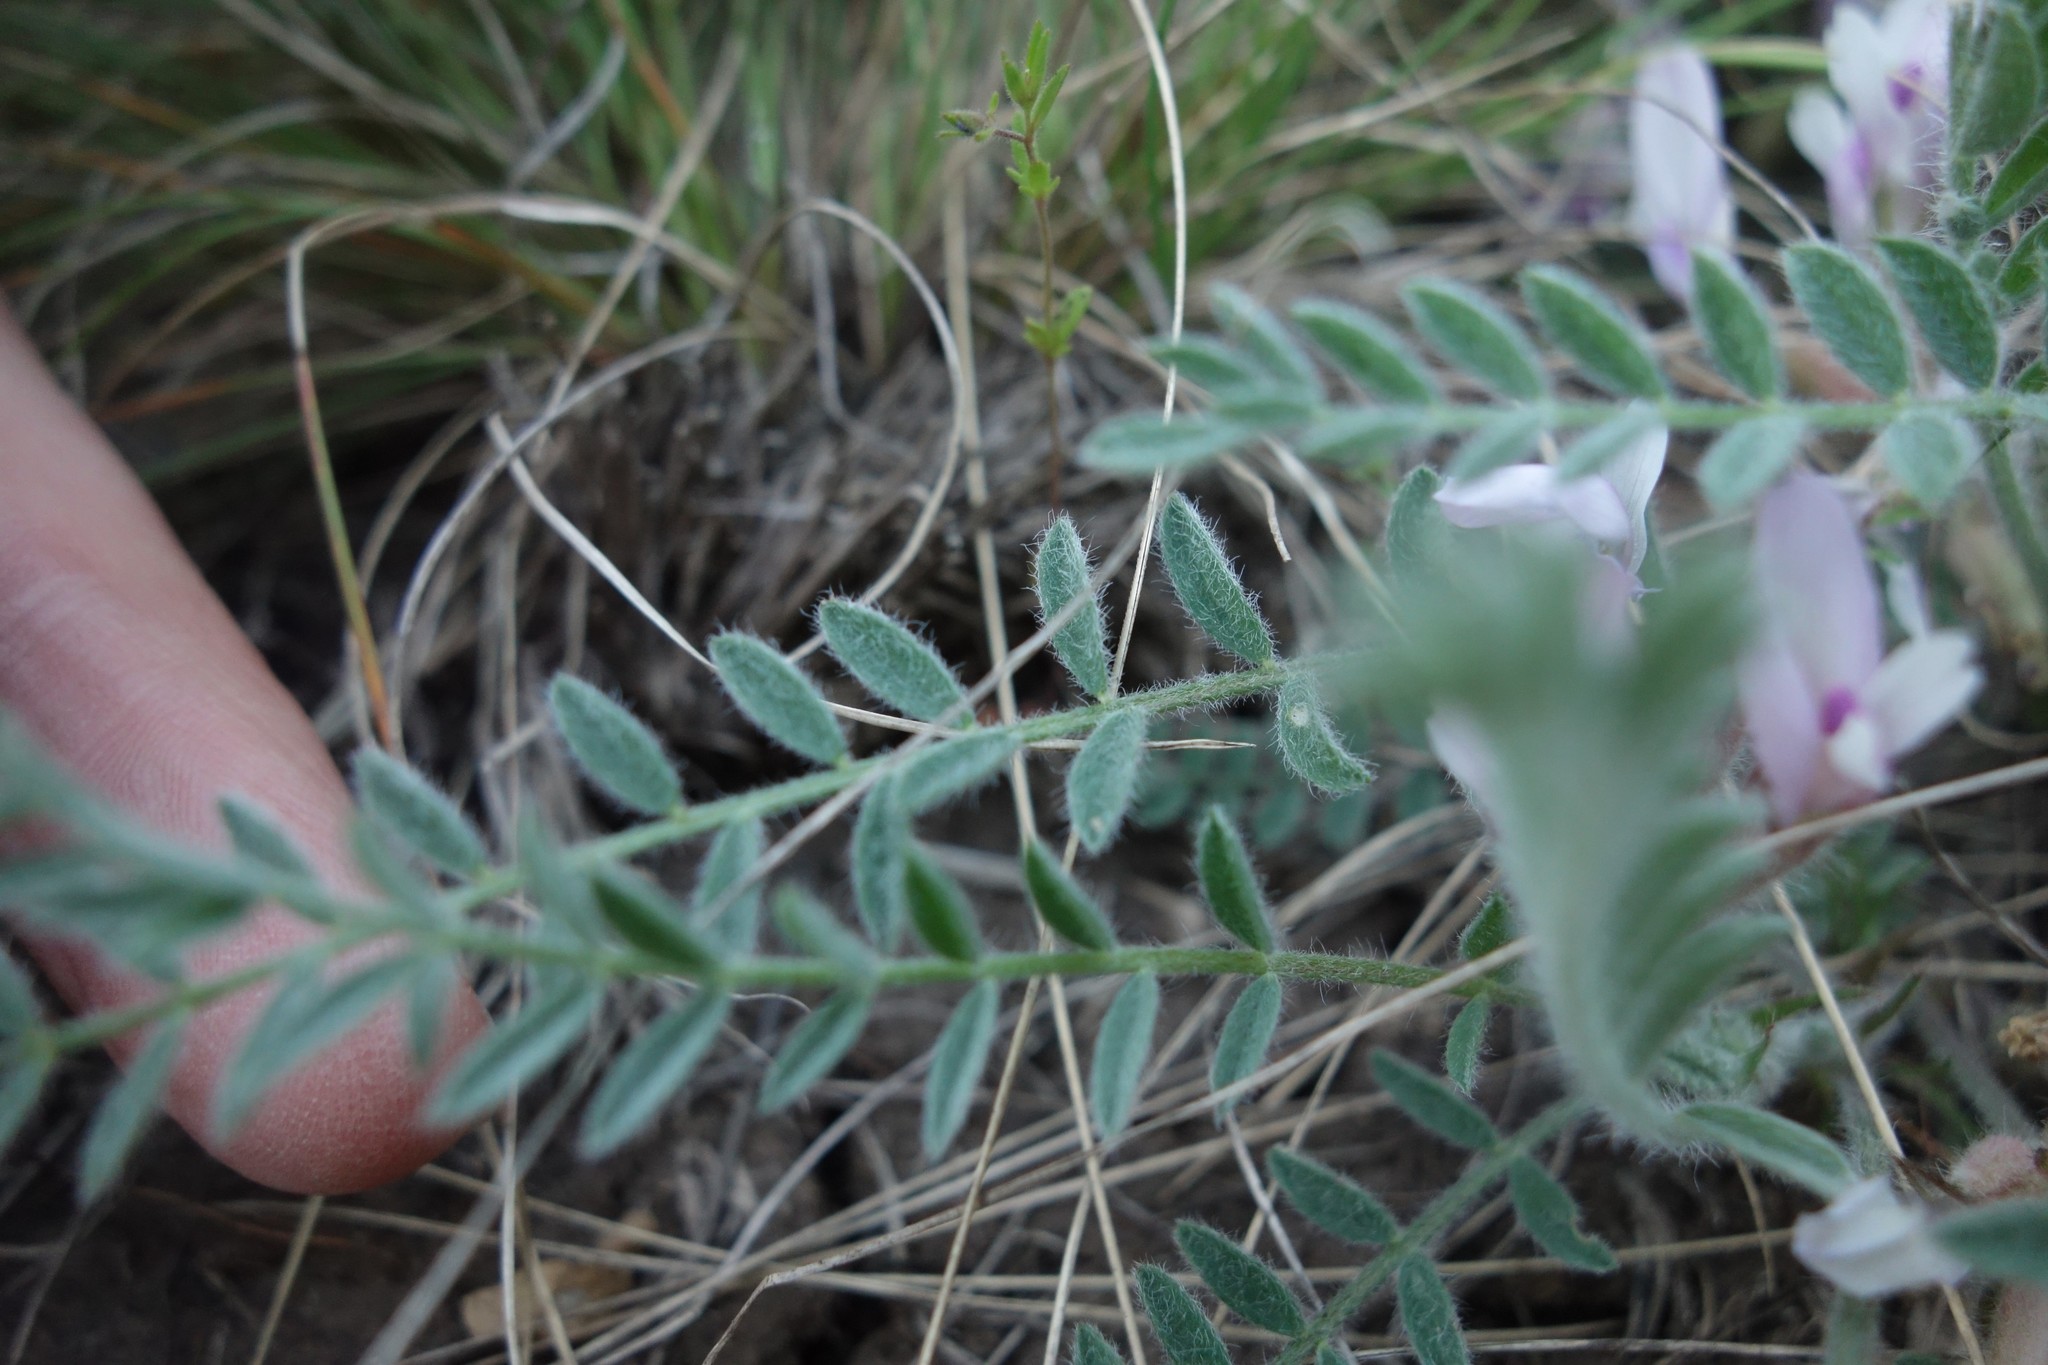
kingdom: Plantae
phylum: Tracheophyta
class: Magnoliopsida
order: Fabales
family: Fabaceae
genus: Astragalus
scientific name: Astragalus testiculatus
